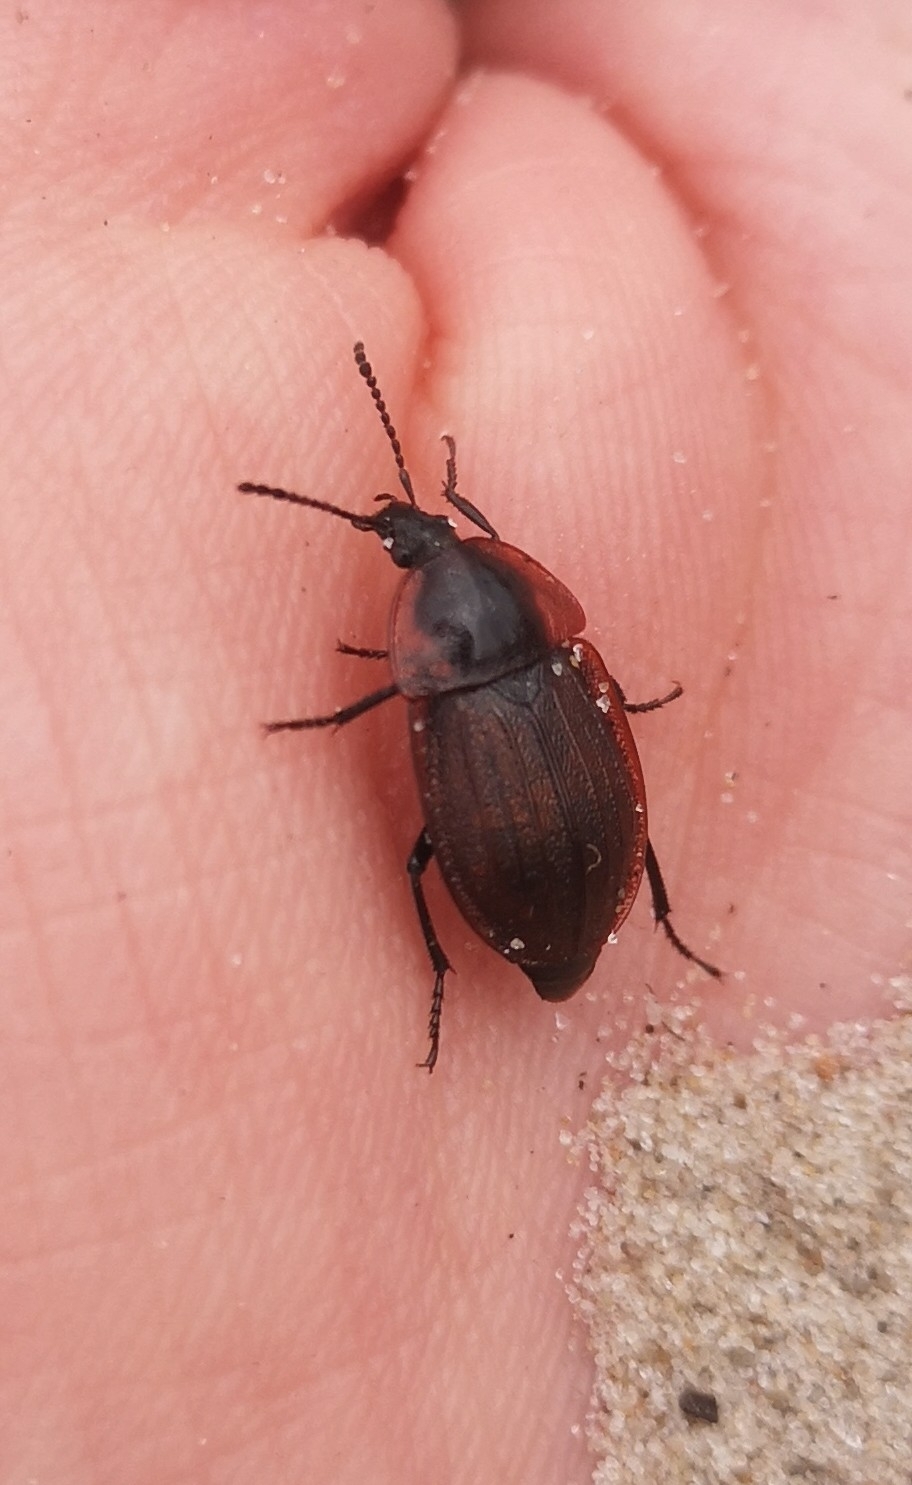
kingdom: Animalia
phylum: Arthropoda
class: Insecta
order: Coleoptera
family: Staphylinidae
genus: Silpha
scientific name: Silpha atrata
